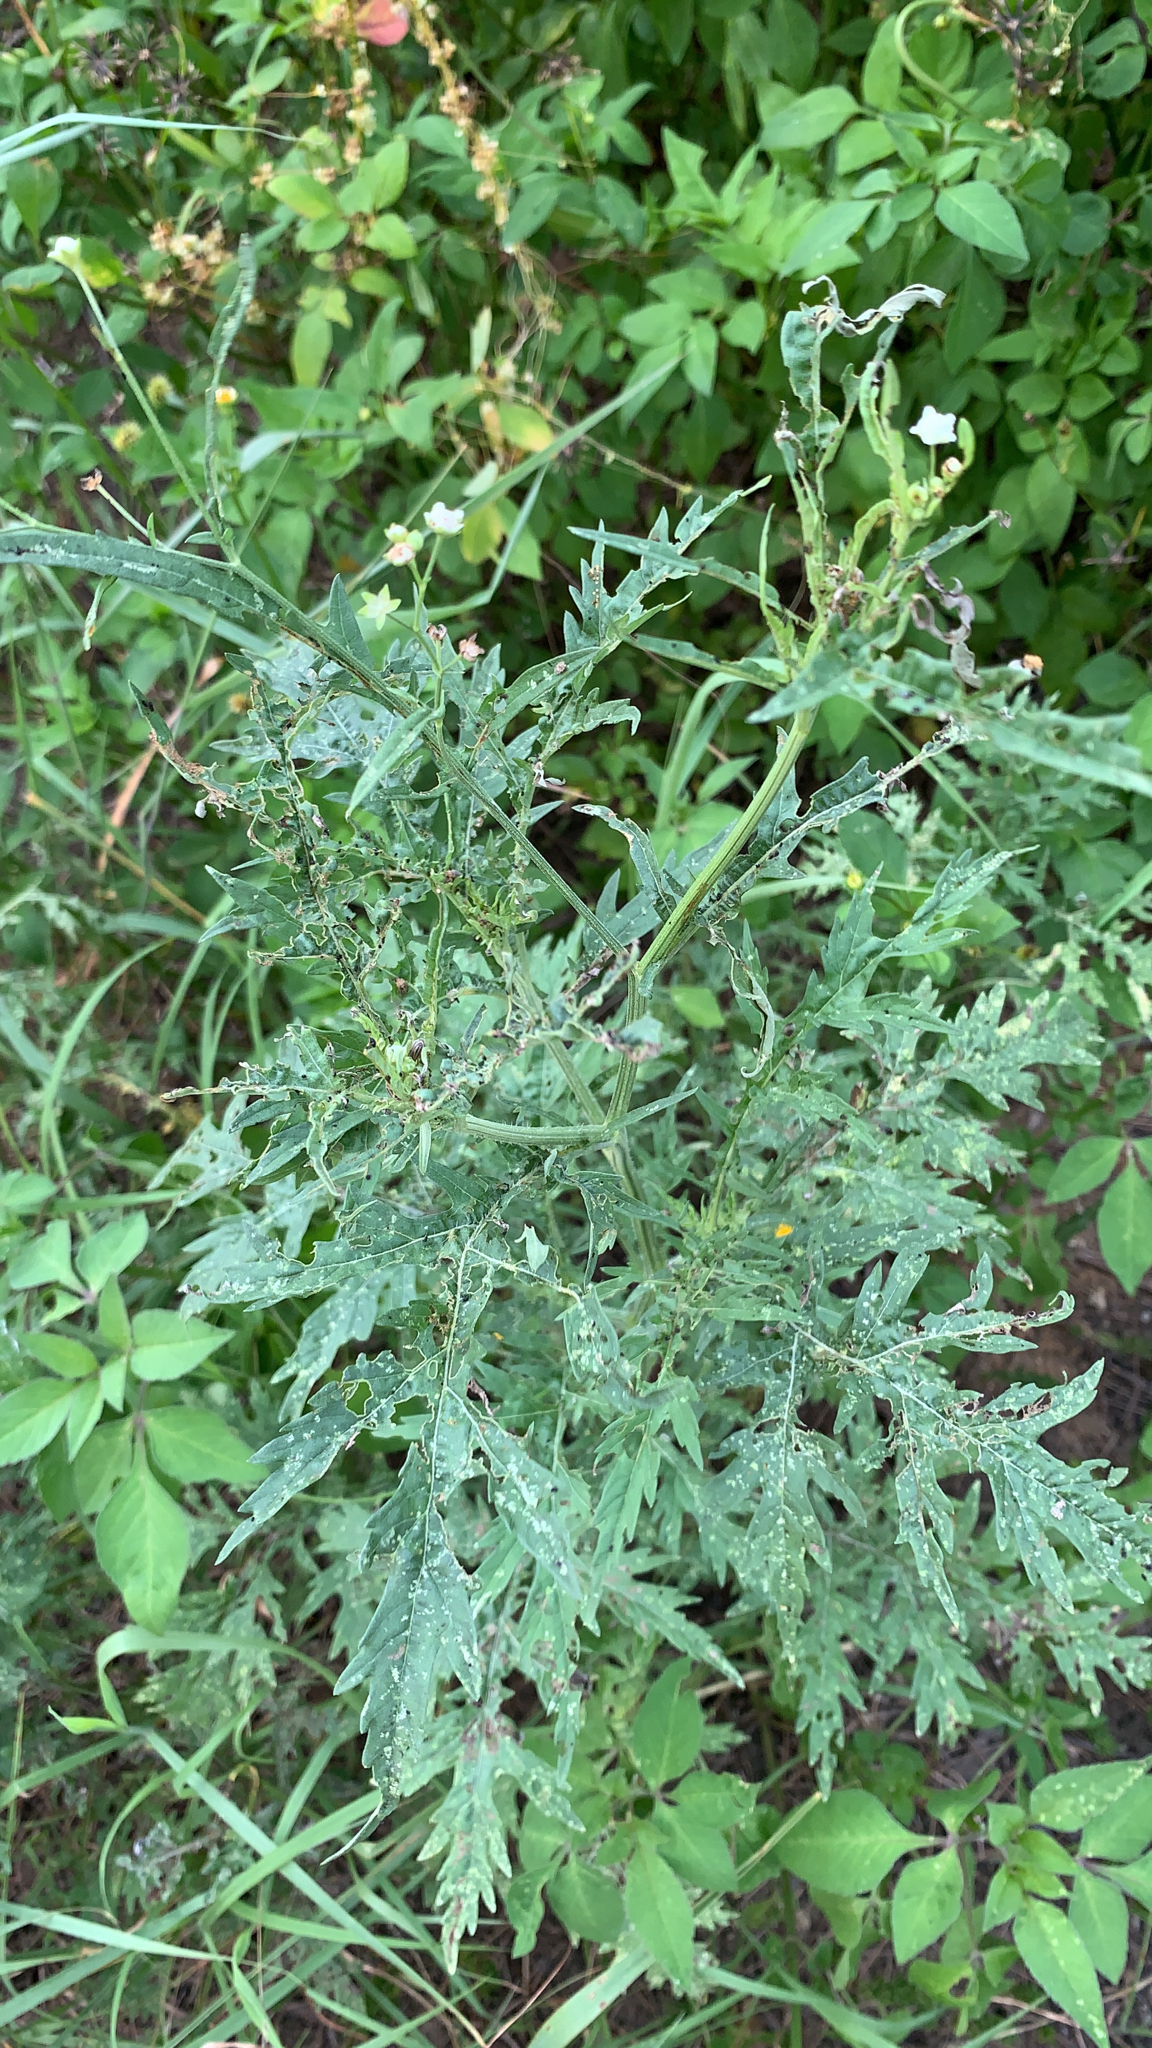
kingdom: Plantae
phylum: Tracheophyta
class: Magnoliopsida
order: Asterales
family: Asteraceae
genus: Parthenium
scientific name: Parthenium hysterophorus
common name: Santa maria feverfew
